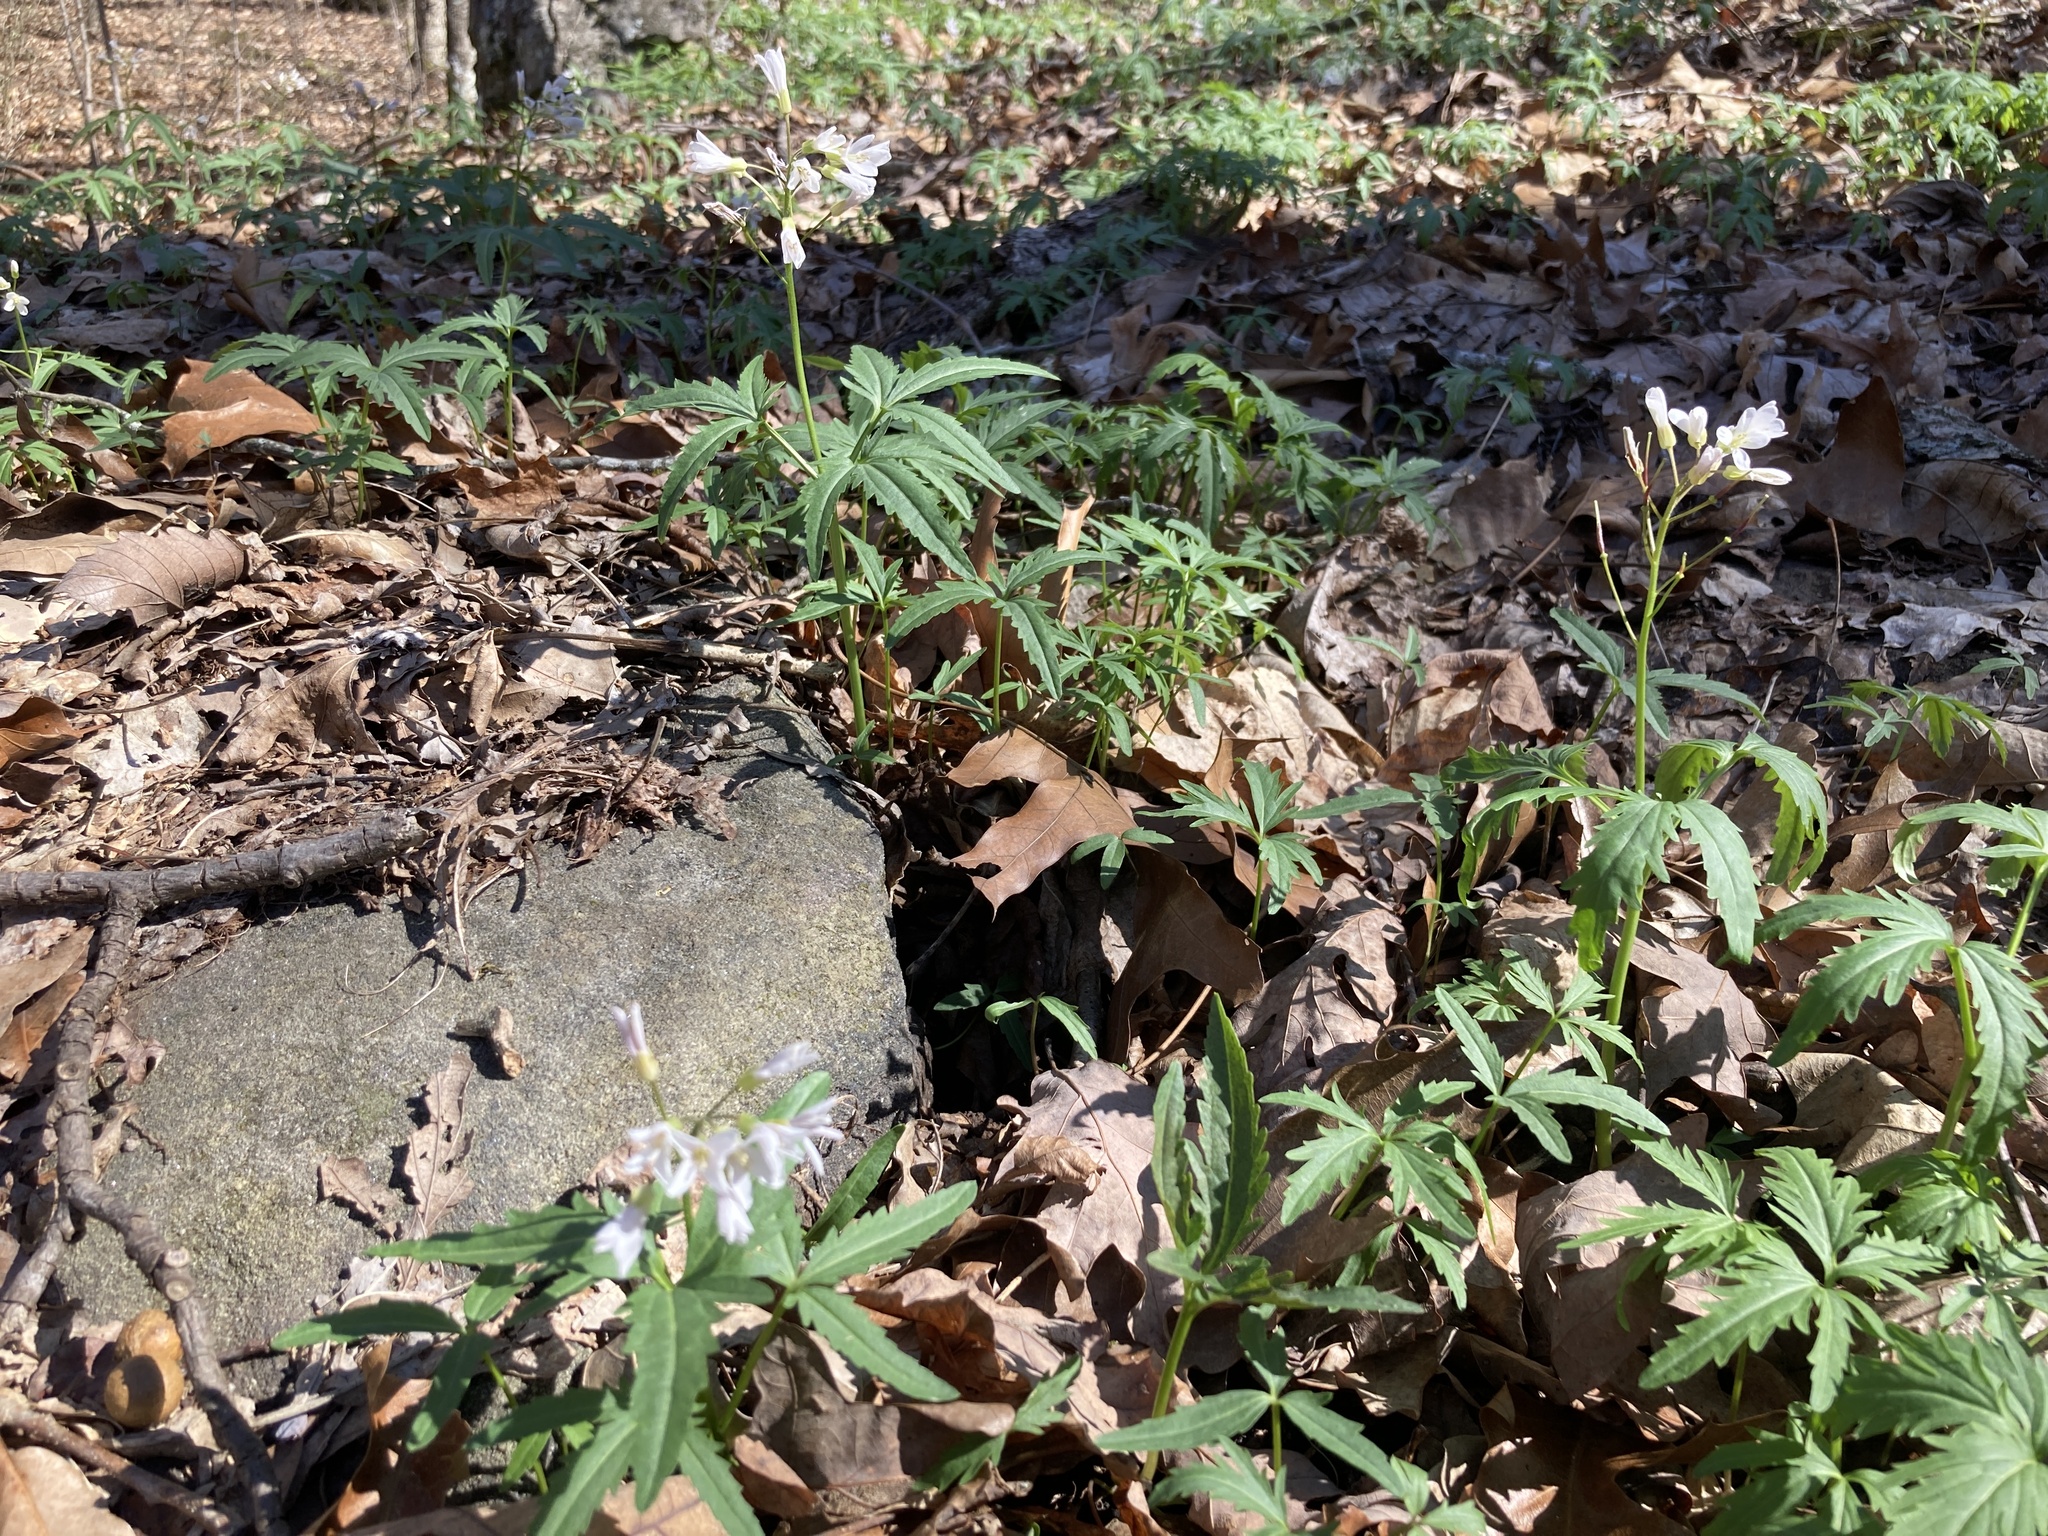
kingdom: Plantae
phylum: Tracheophyta
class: Magnoliopsida
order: Brassicales
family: Brassicaceae
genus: Cardamine
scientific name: Cardamine concatenata
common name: Cut-leaf toothcup
